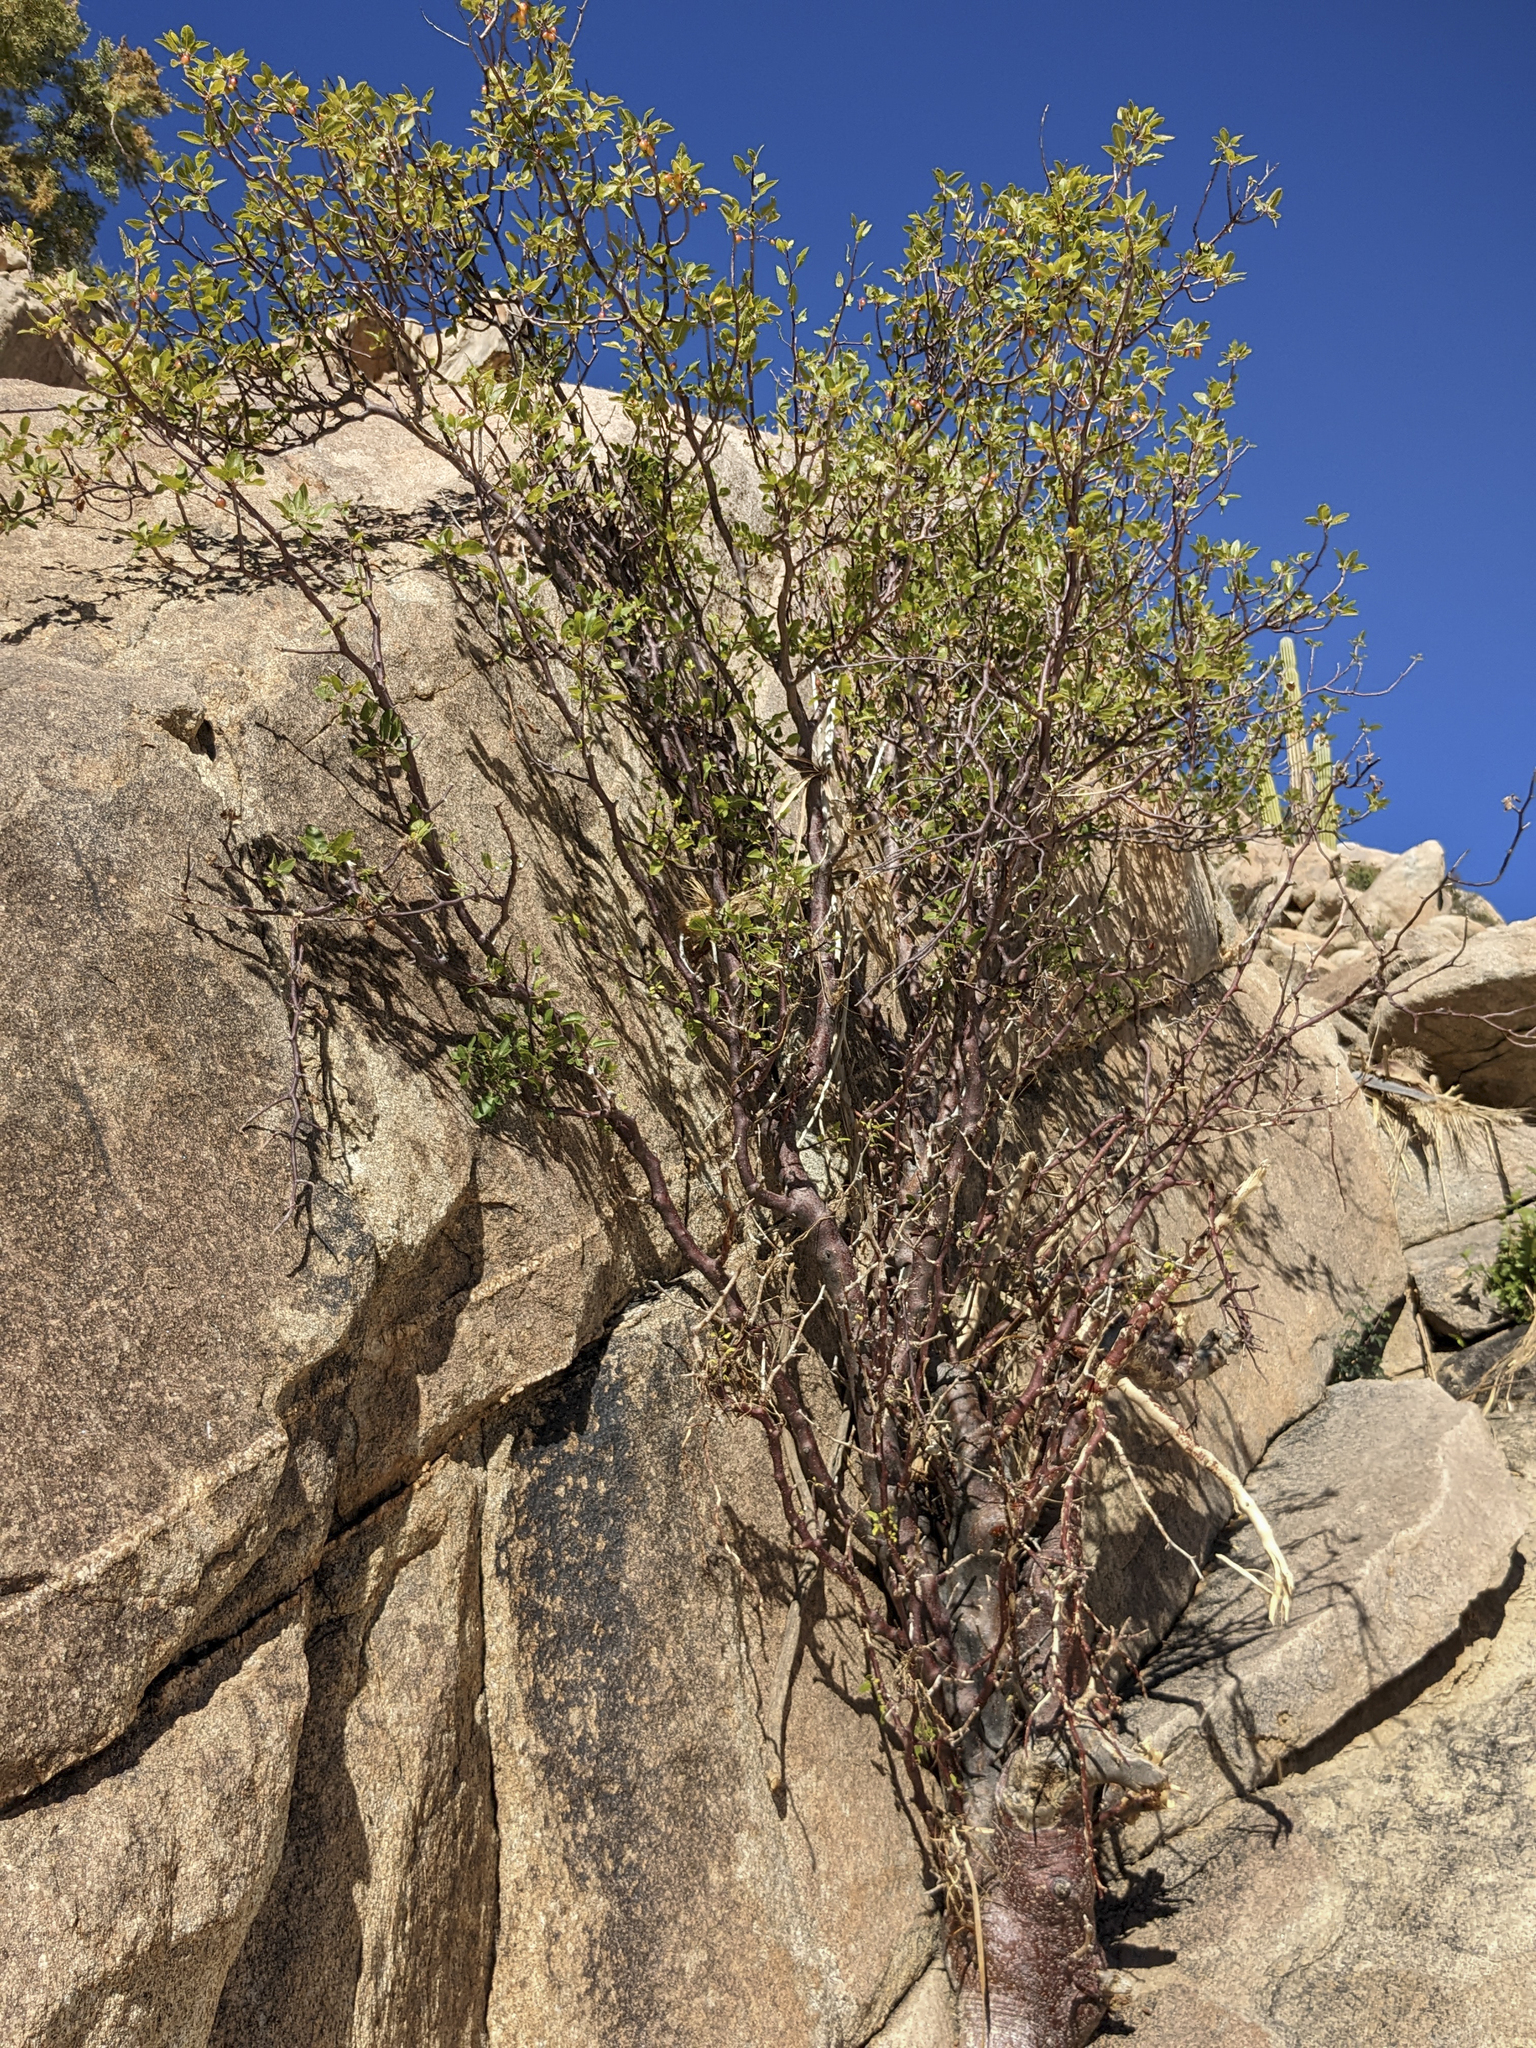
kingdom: Plantae
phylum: Tracheophyta
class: Magnoliopsida
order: Sapindales
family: Burseraceae
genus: Bursera
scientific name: Bursera hindsiana
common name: Red elephant tree
